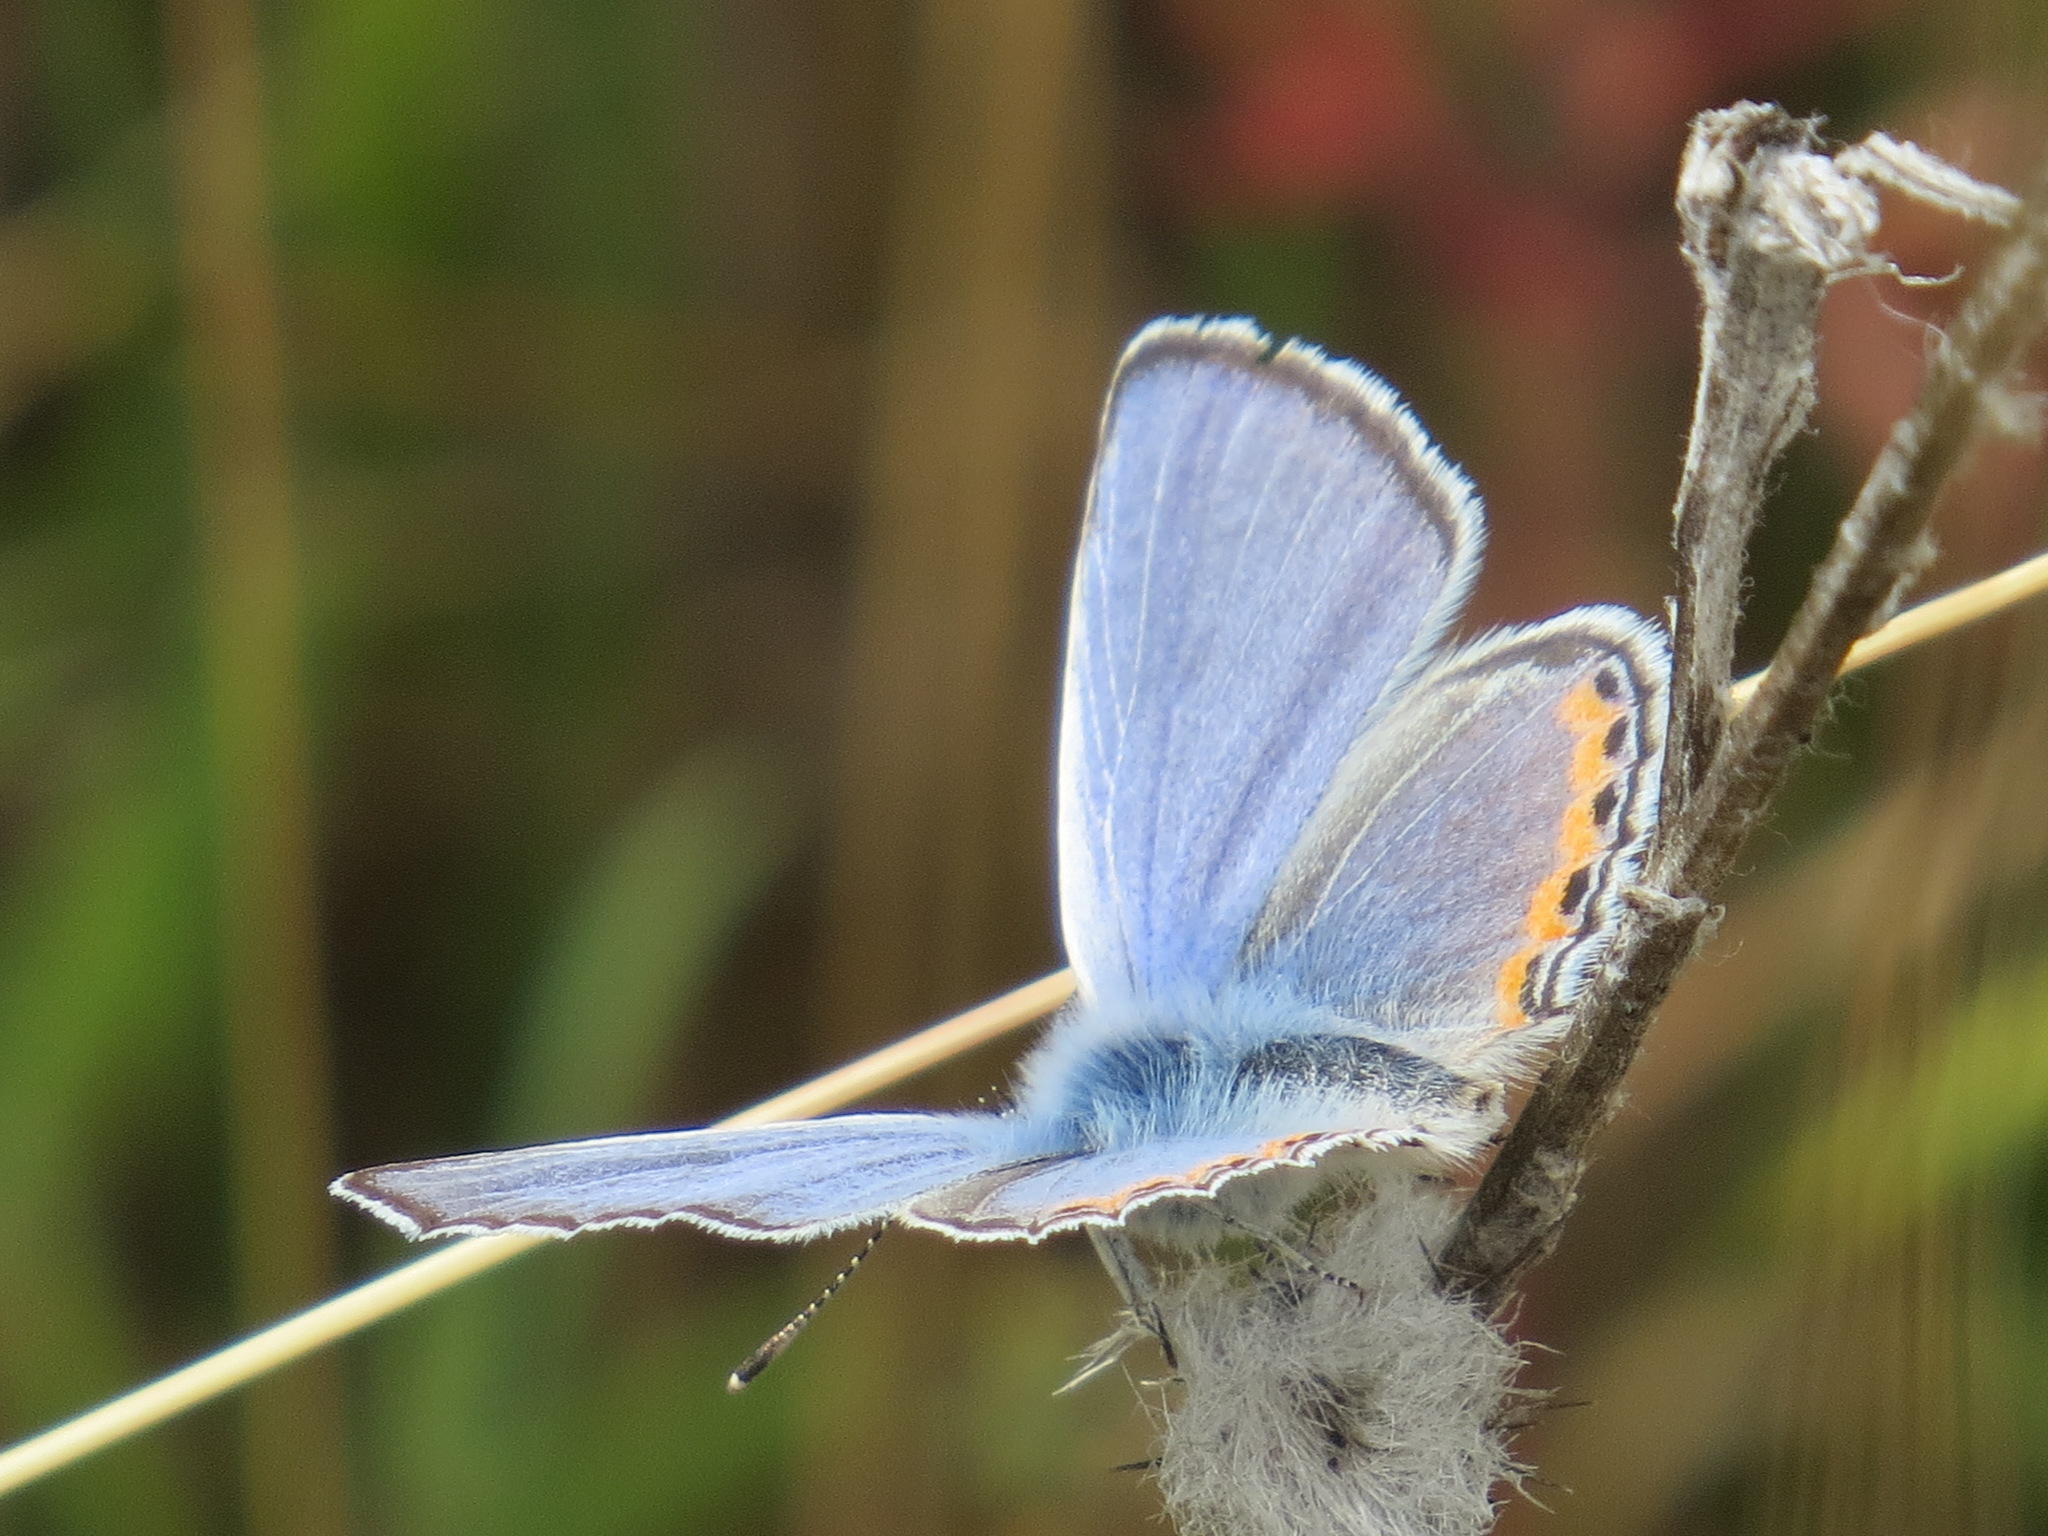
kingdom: Animalia
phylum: Arthropoda
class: Insecta
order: Lepidoptera
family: Lycaenidae
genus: Icaricia
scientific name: Icaricia acmon
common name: Acmon blue
